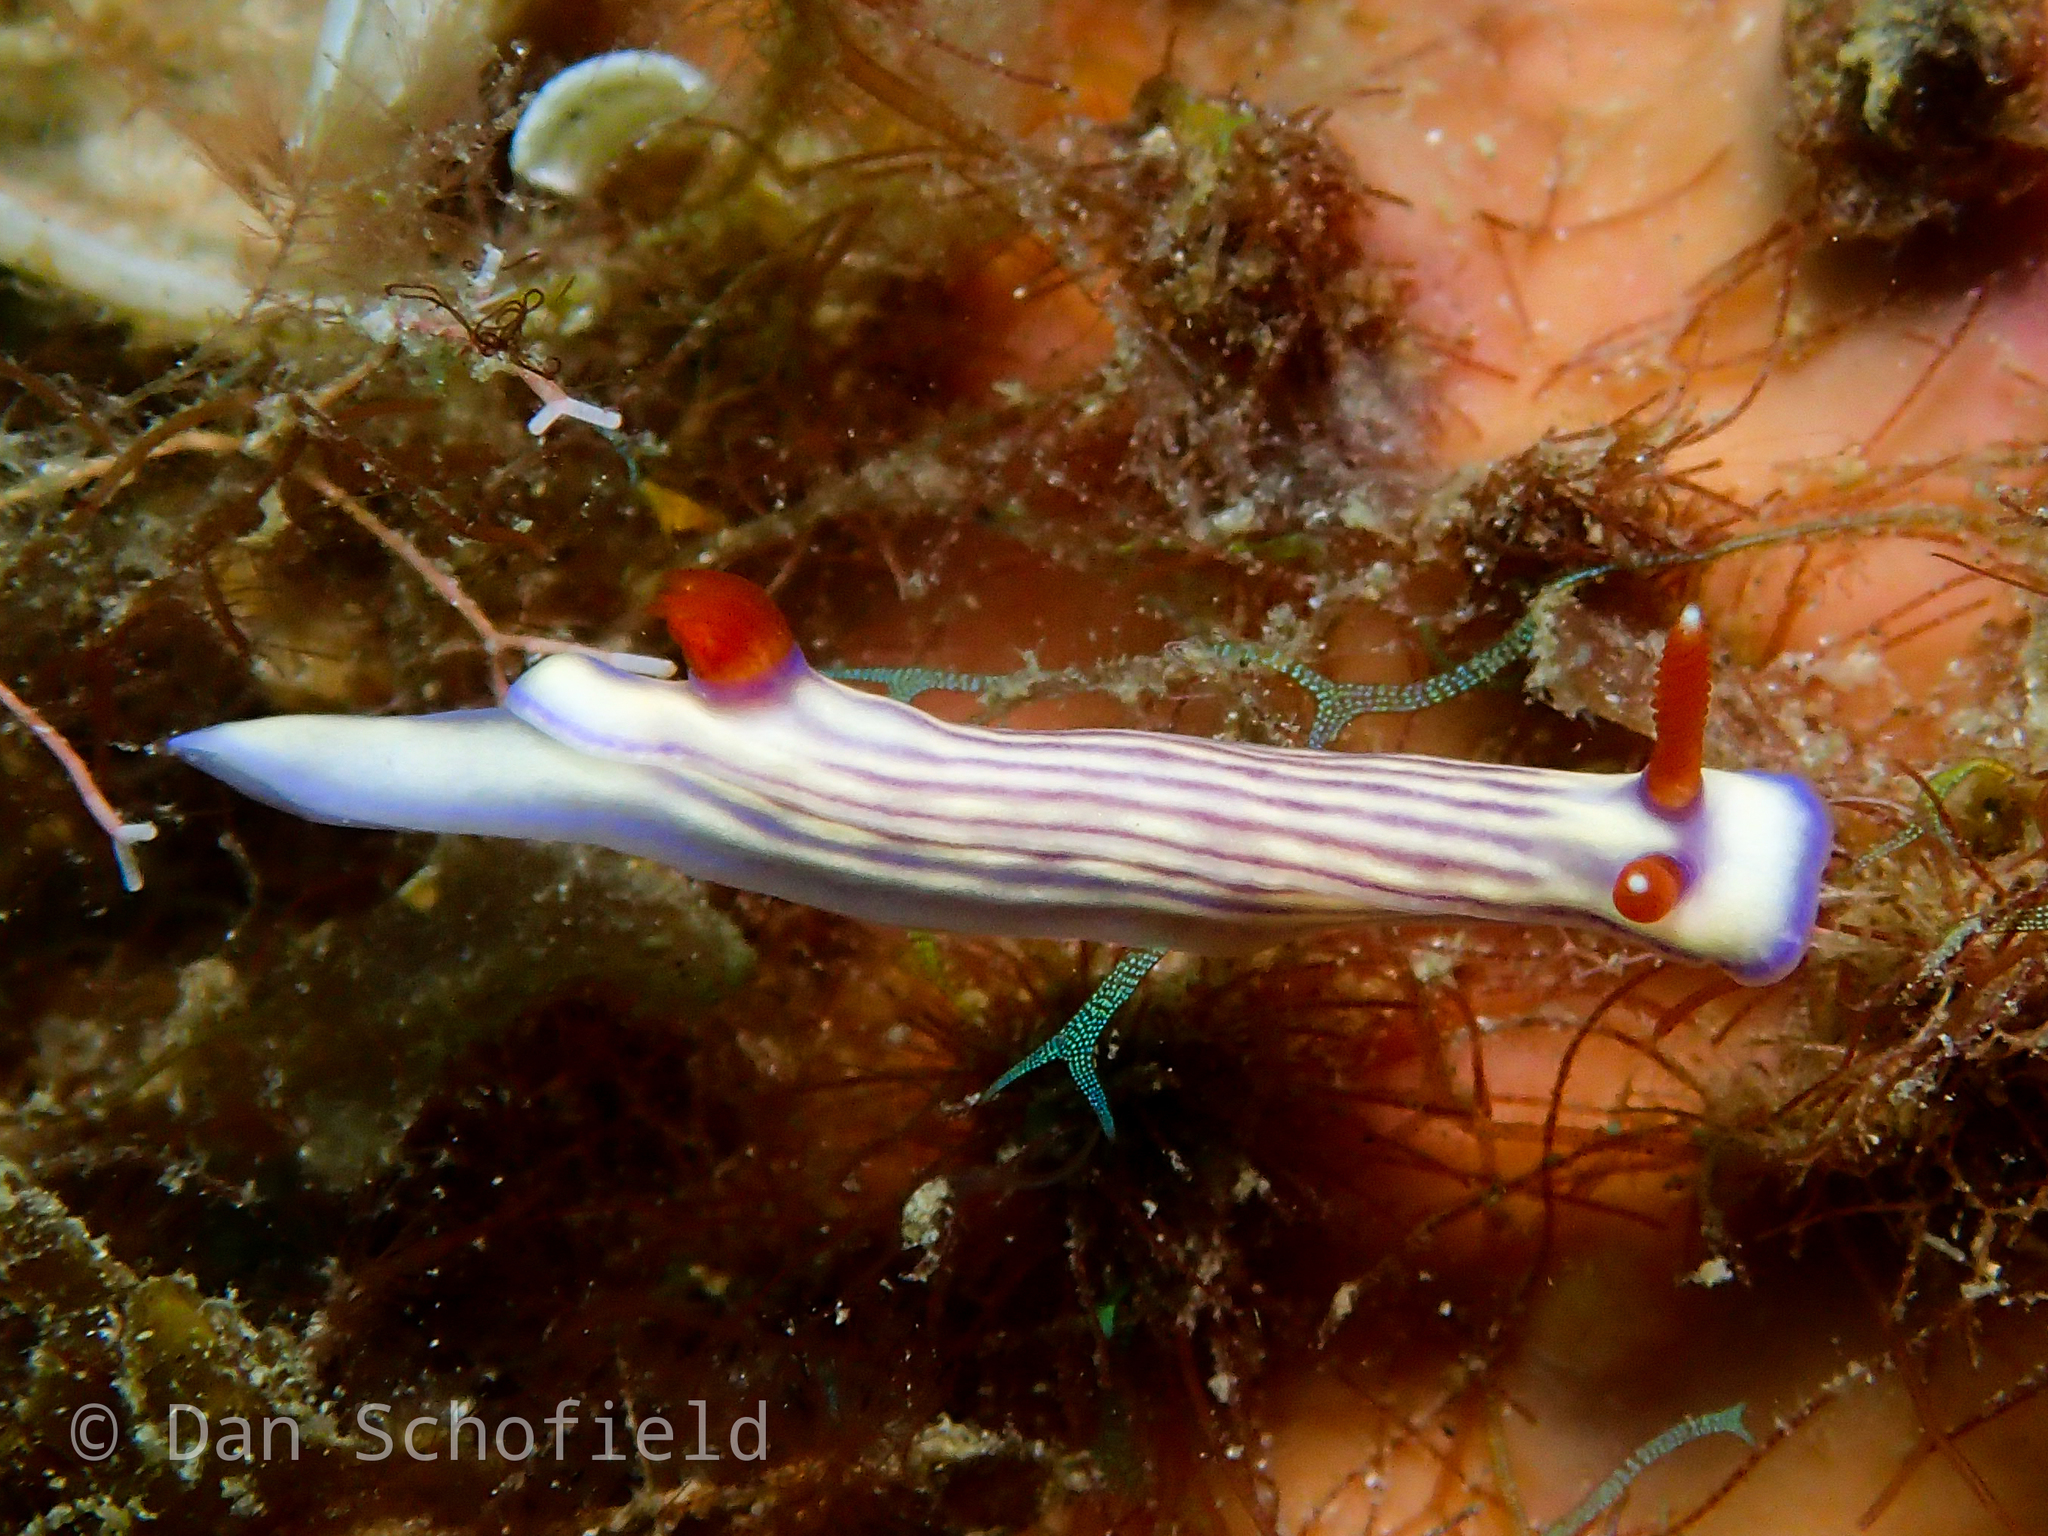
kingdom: Animalia
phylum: Mollusca
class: Gastropoda
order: Nudibranchia
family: Chromodorididae
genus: Hypselodoris
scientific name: Hypselodoris whitei
